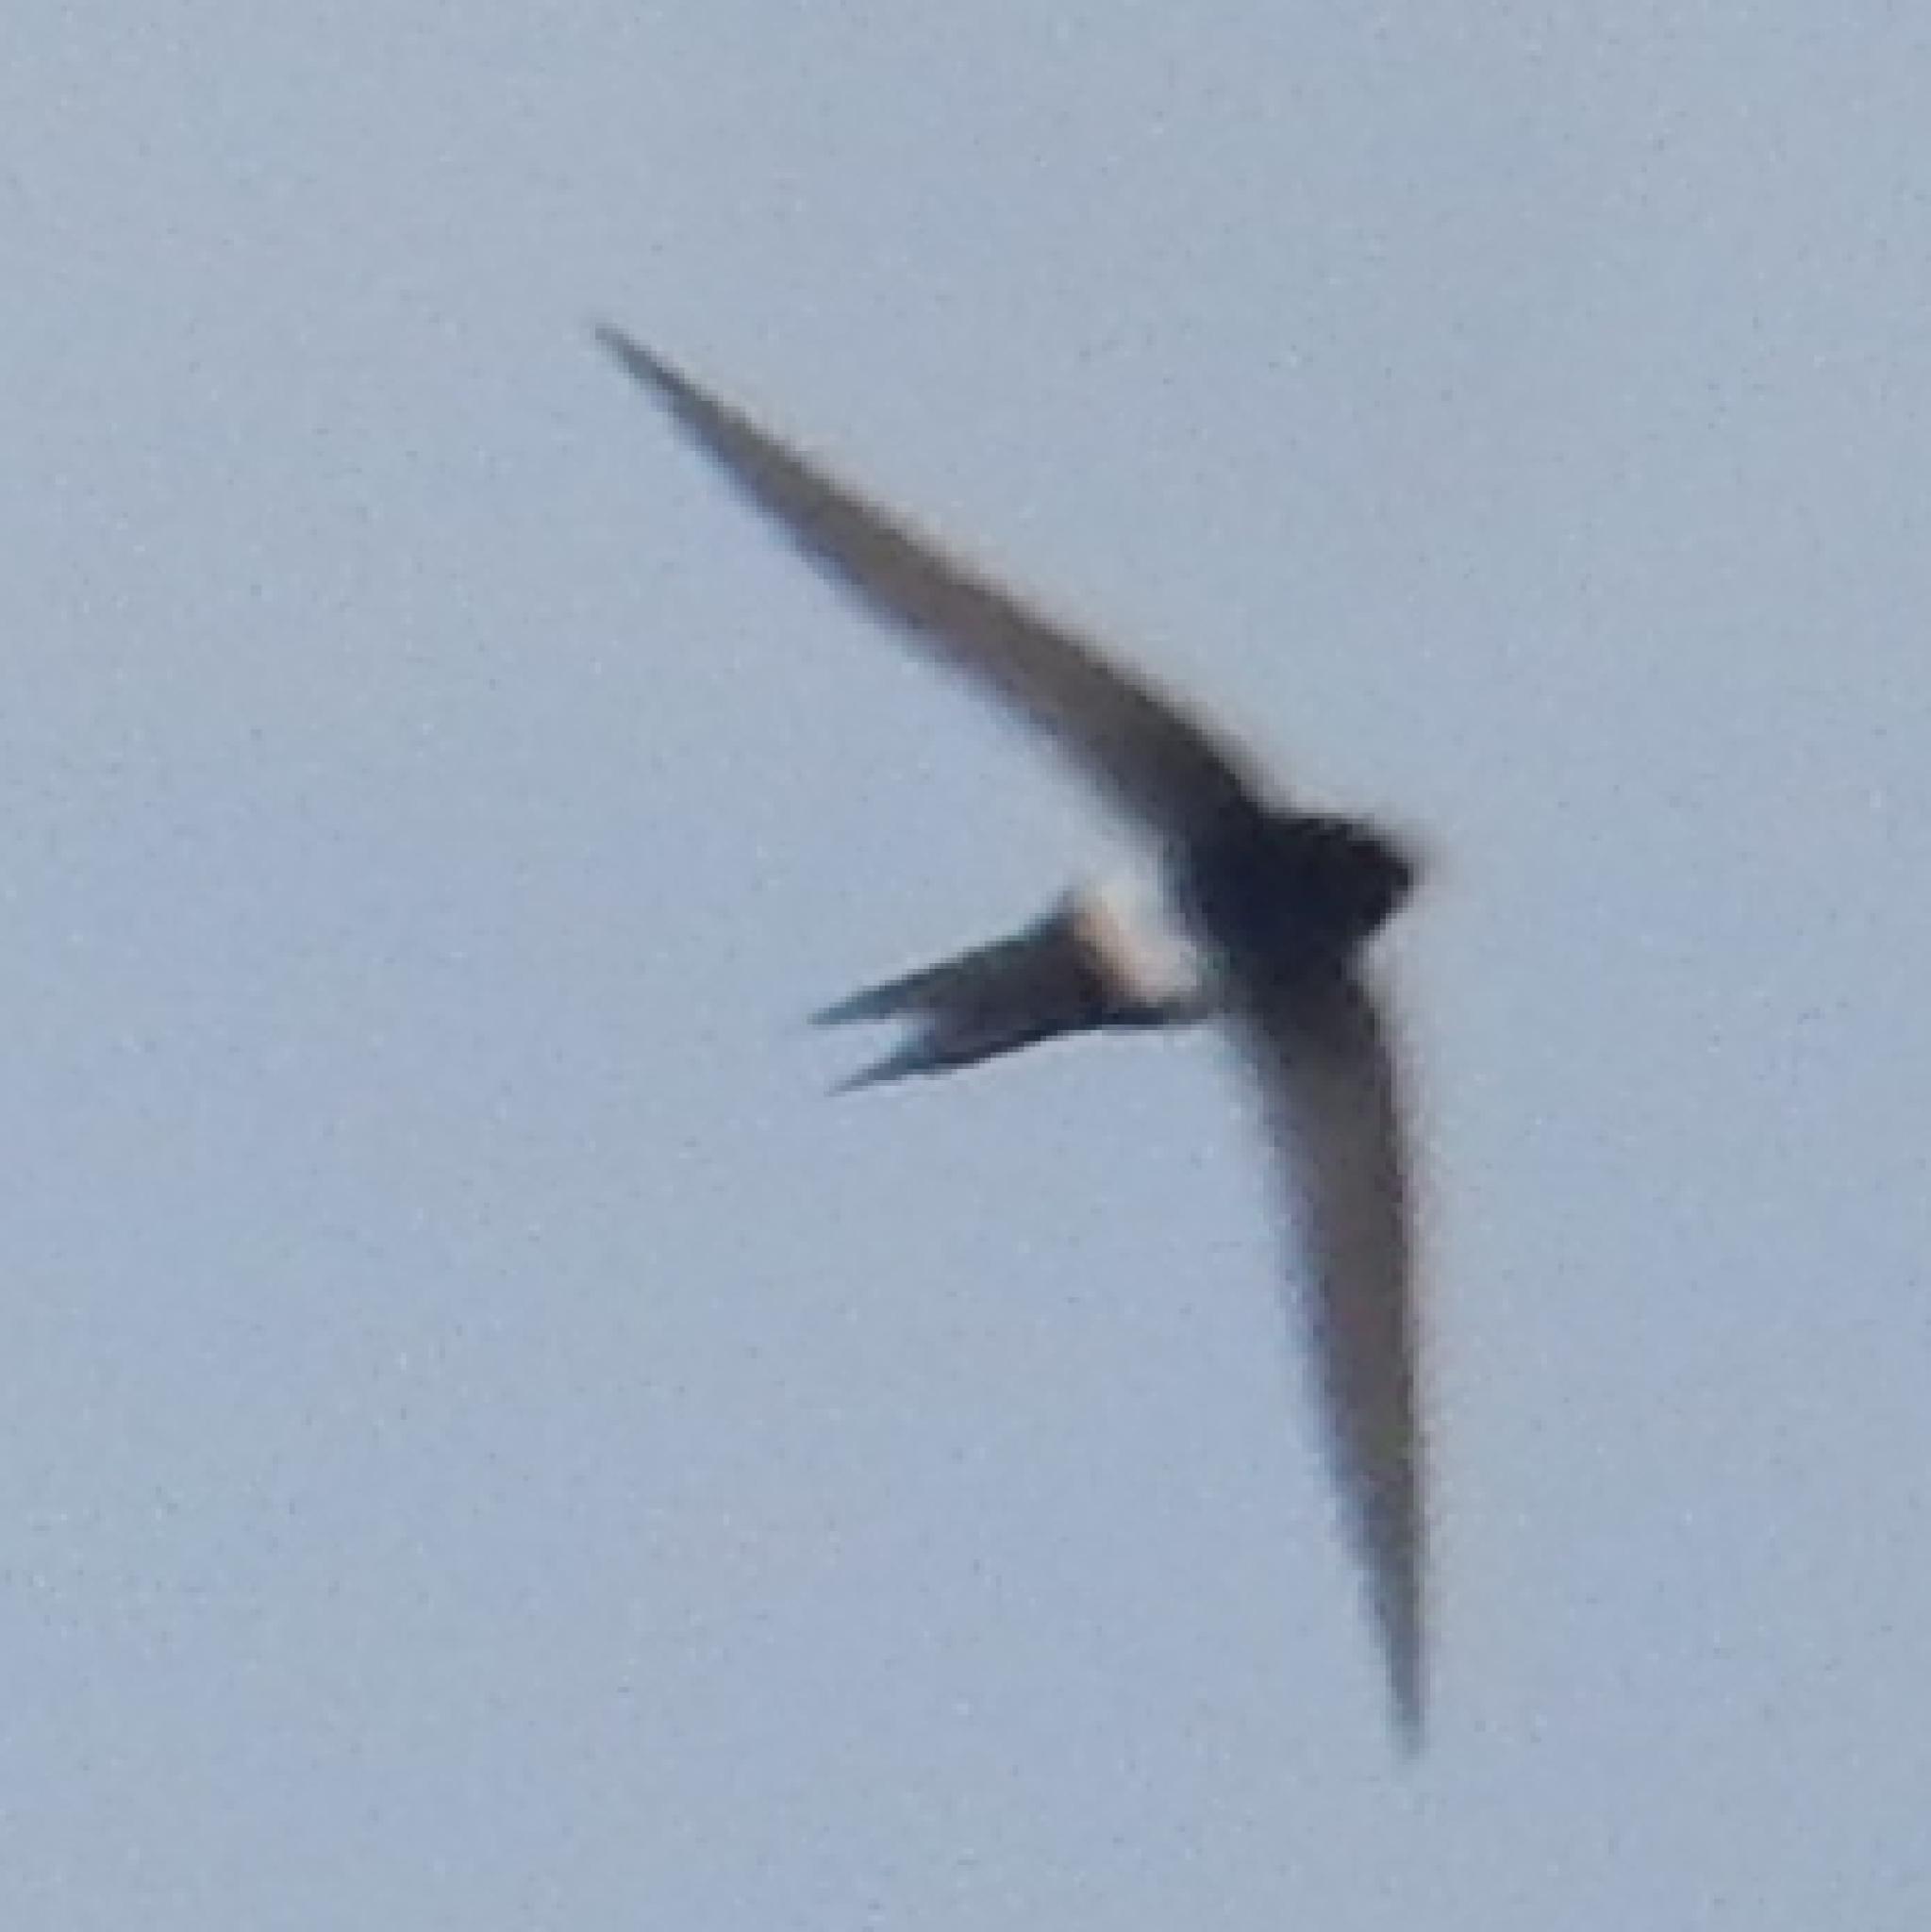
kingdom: Animalia
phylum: Chordata
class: Aves
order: Apodiformes
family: Apodidae
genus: Apus
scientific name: Apus horus
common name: Horus swift
